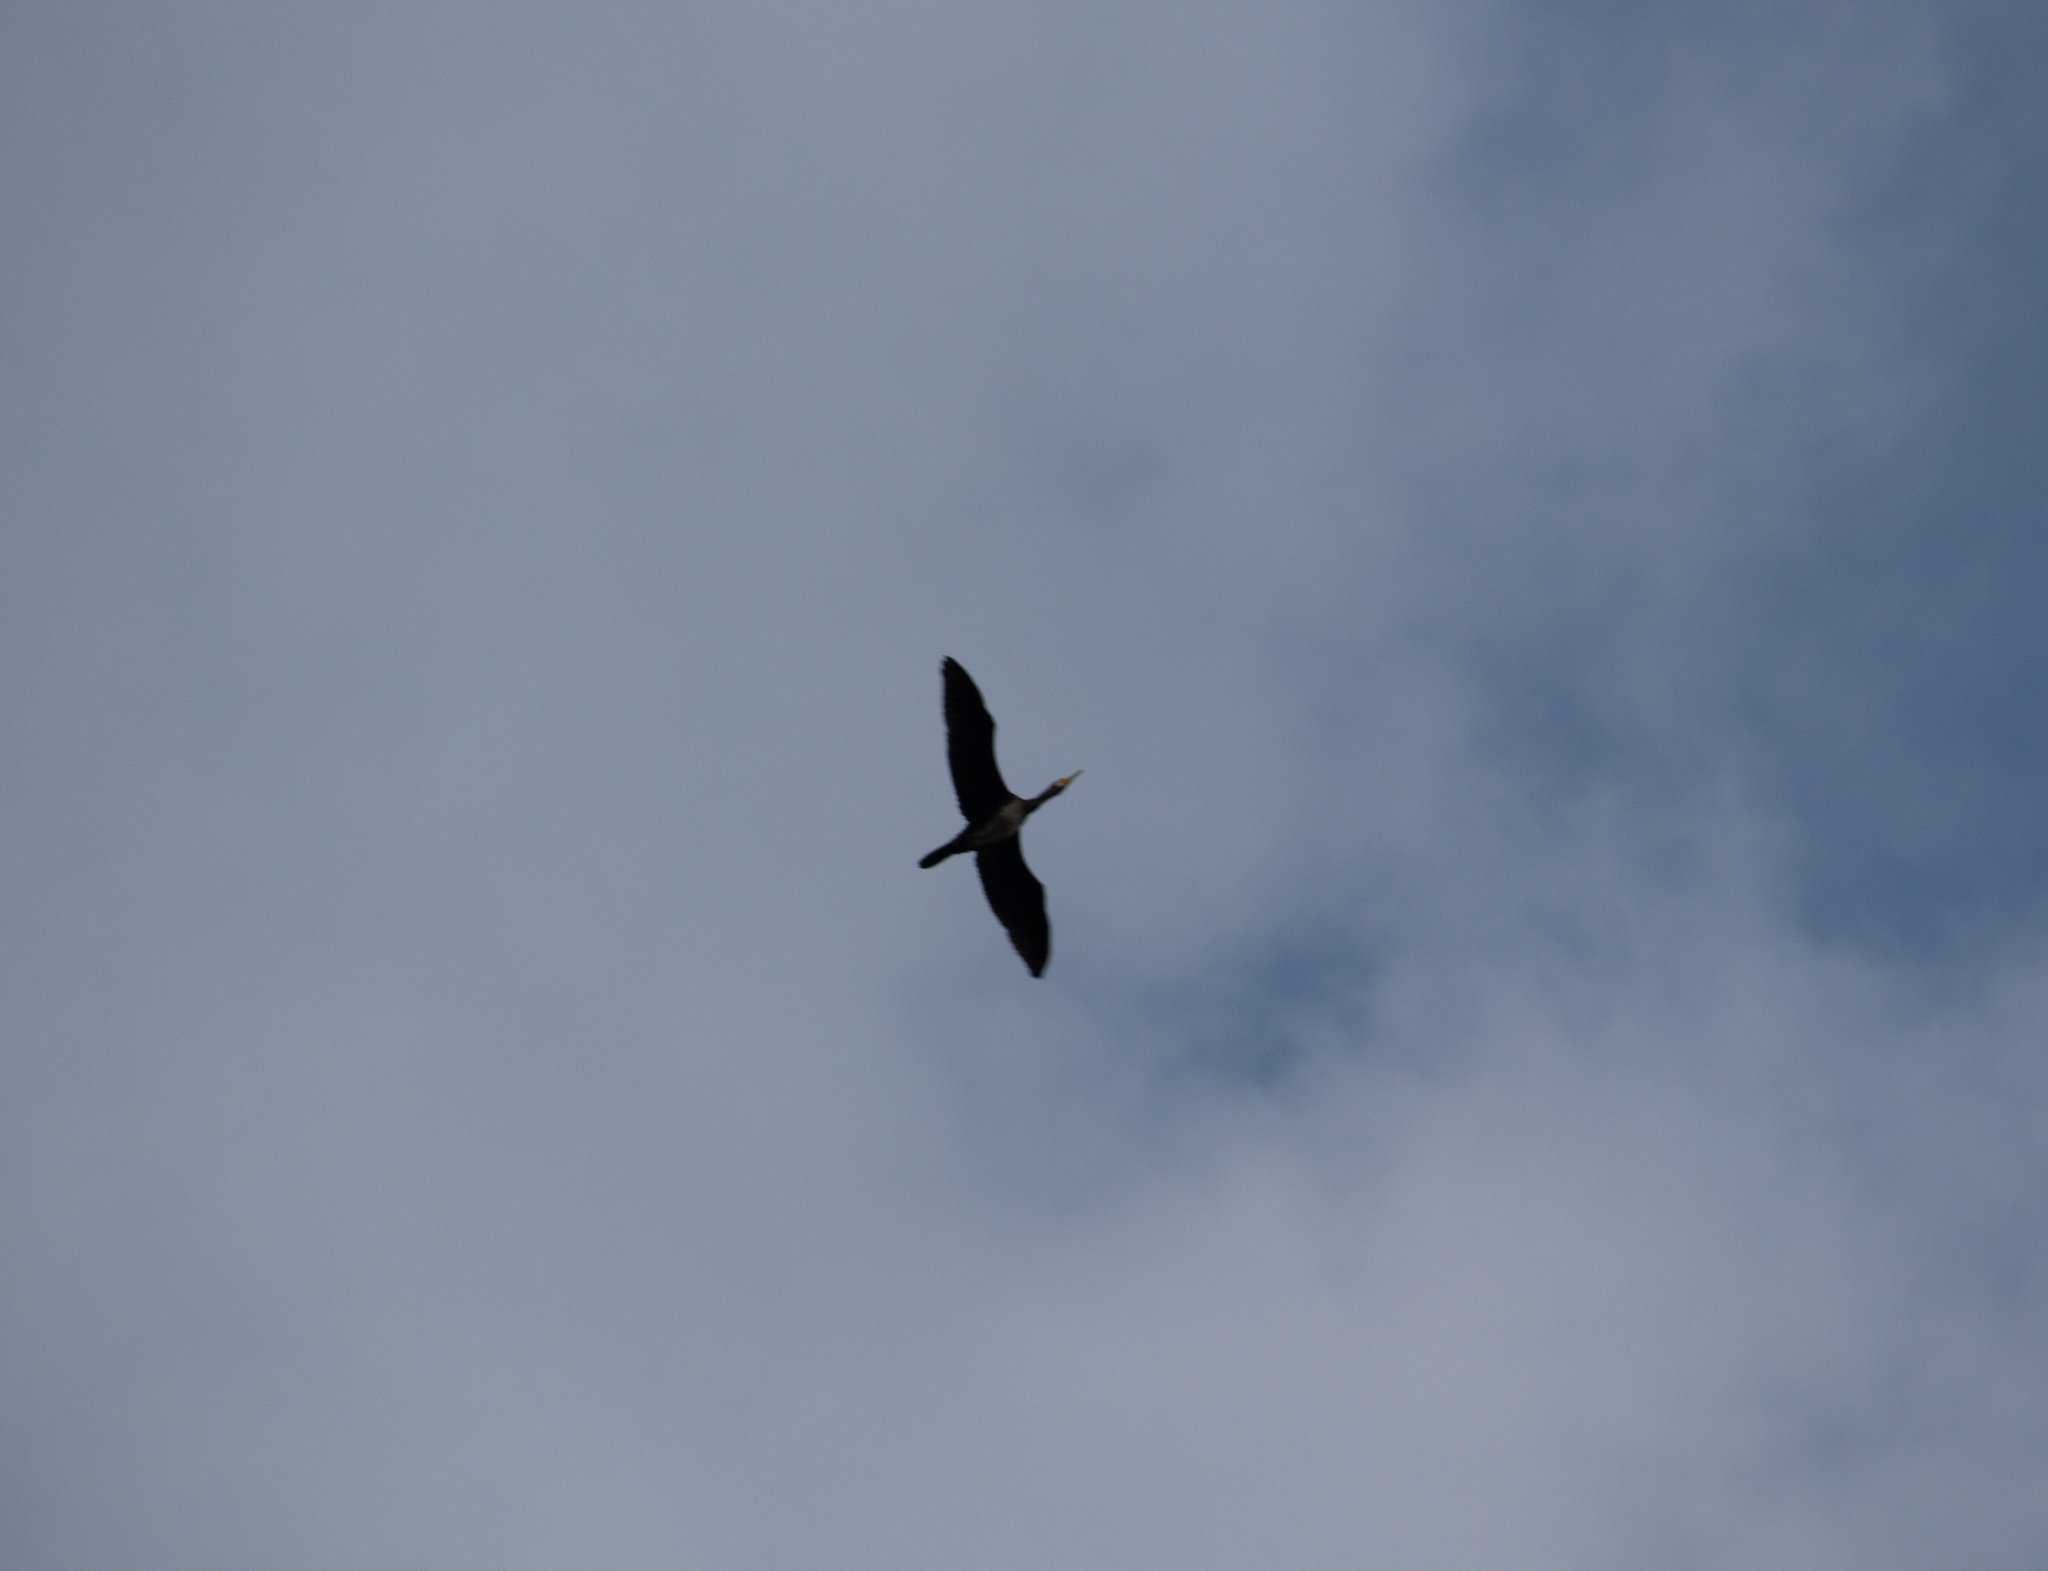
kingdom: Animalia
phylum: Chordata
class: Aves
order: Suliformes
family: Phalacrocoracidae
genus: Phalacrocorax
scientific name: Phalacrocorax carbo
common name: Great cormorant
